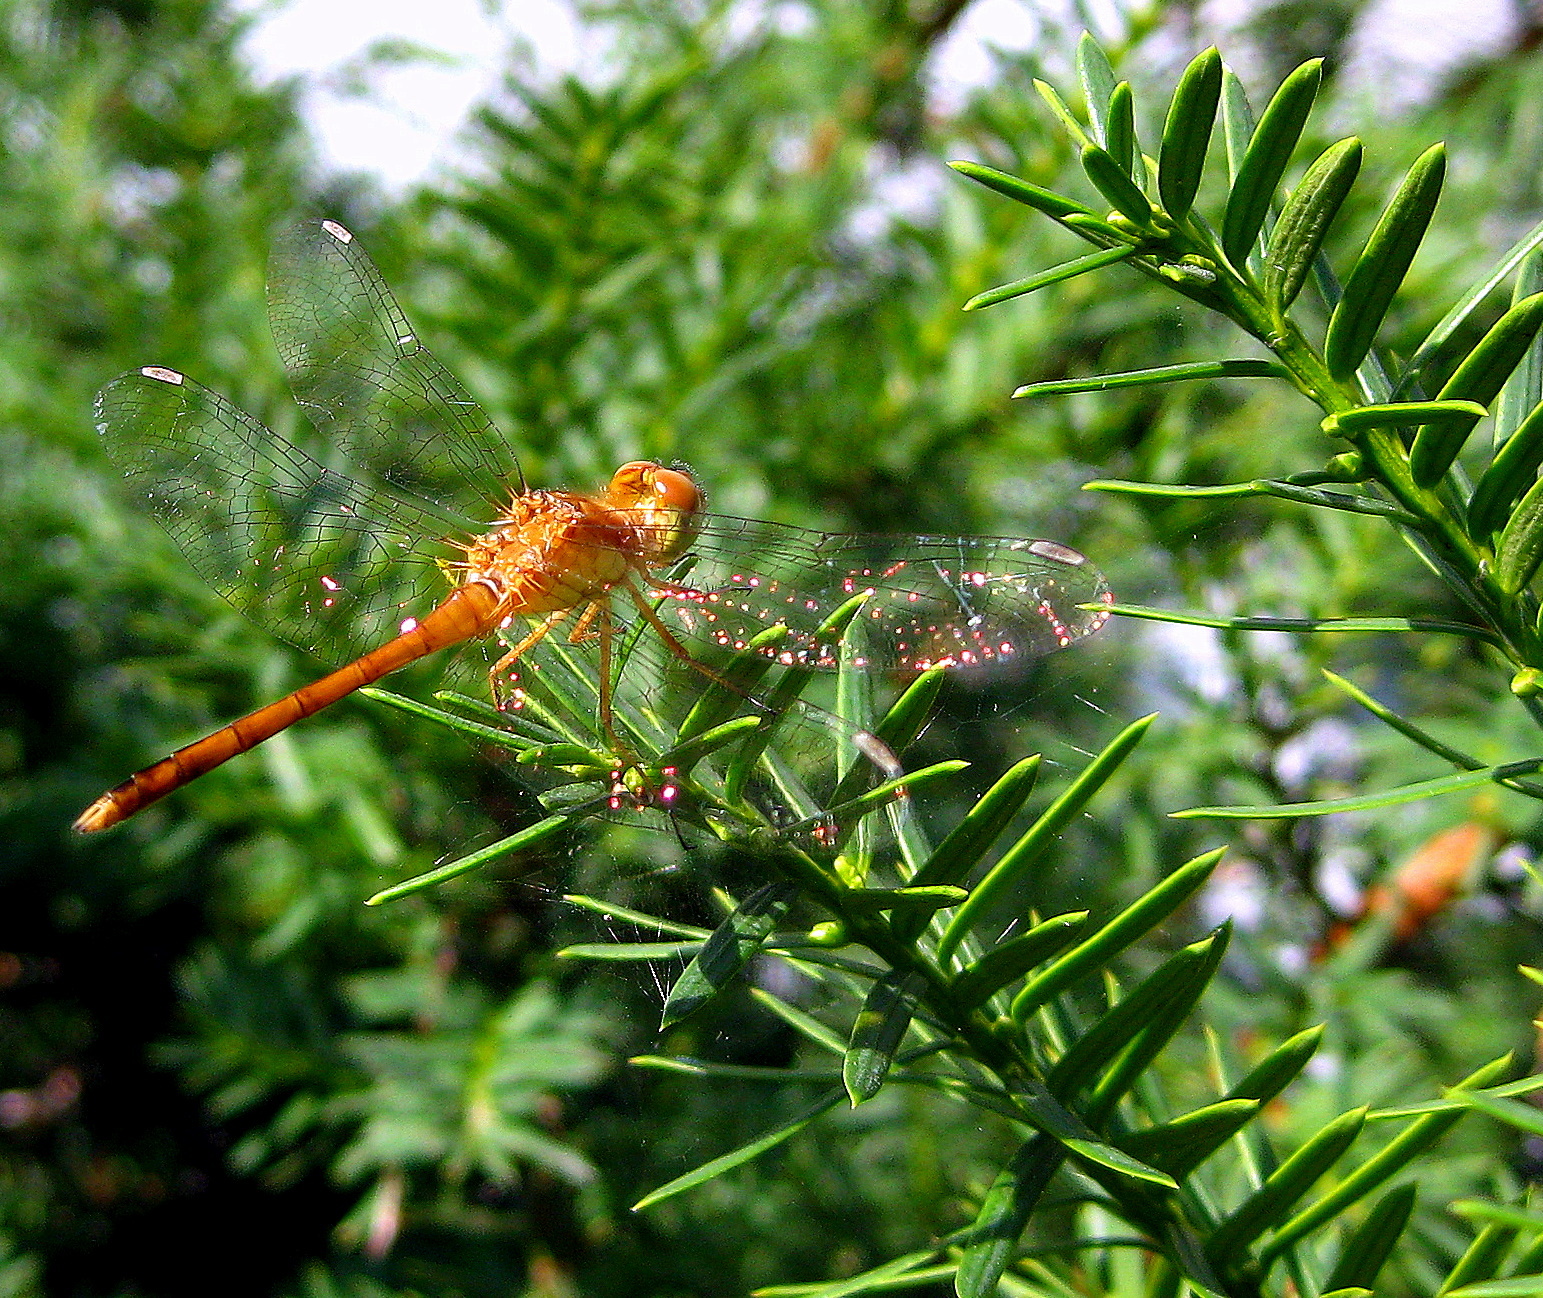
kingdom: Animalia
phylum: Arthropoda
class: Insecta
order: Odonata
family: Libellulidae
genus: Sympetrum
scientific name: Sympetrum vicinum
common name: Autumn meadowhawk
